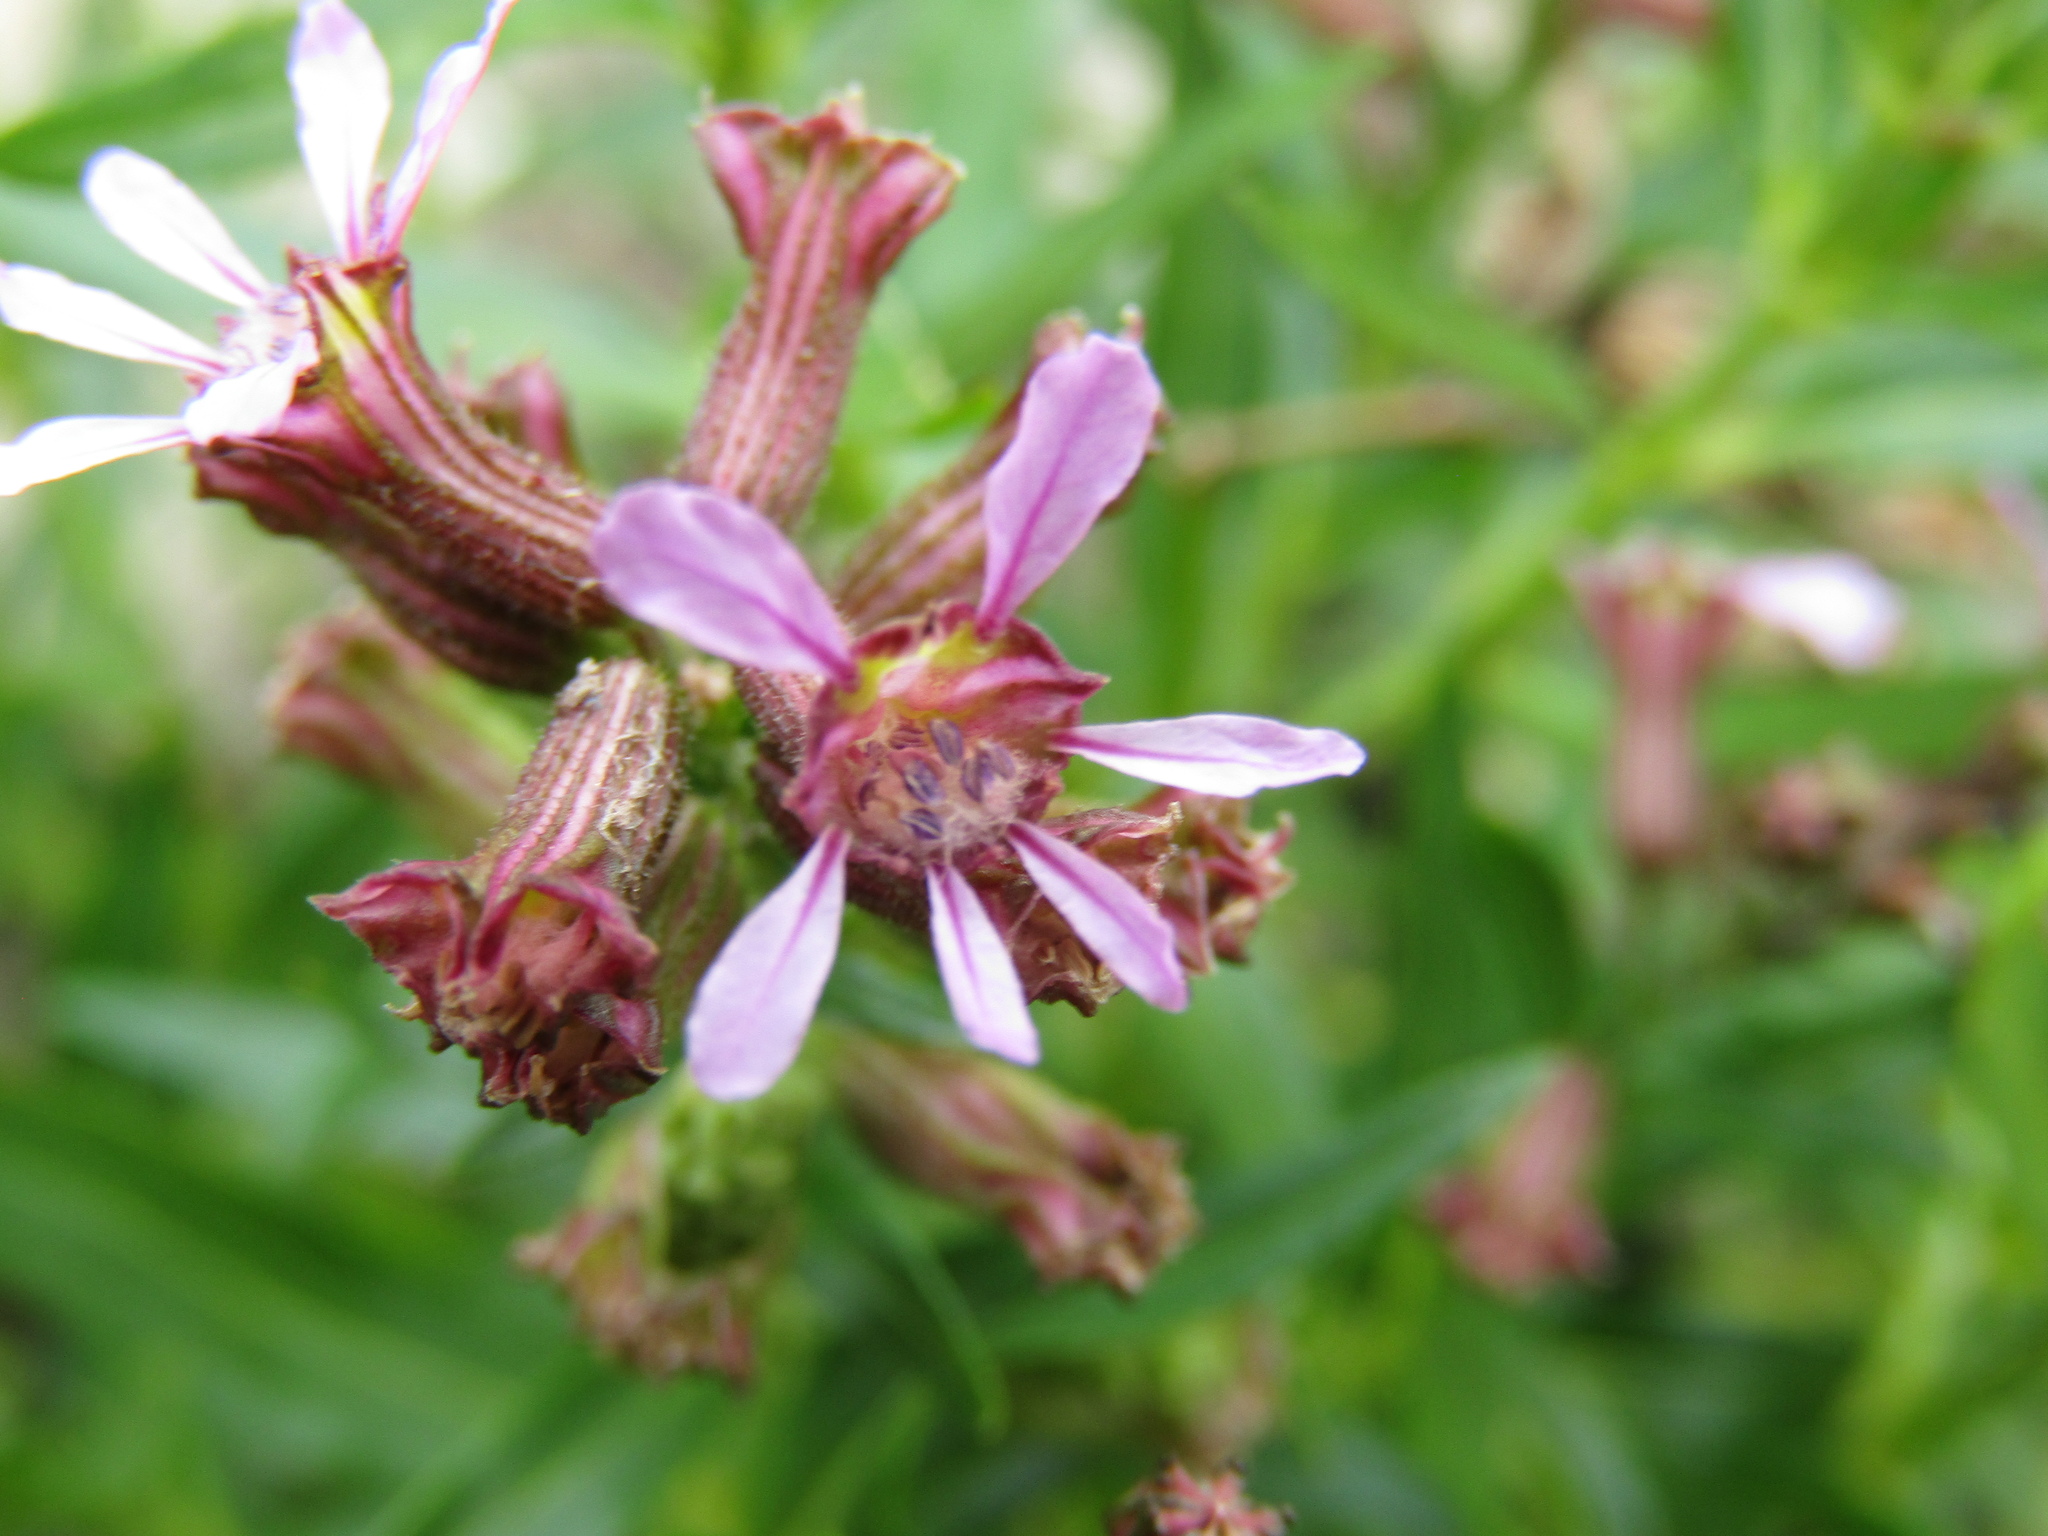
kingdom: Plantae
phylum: Tracheophyta
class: Magnoliopsida
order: Myrtales
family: Lythraceae
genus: Cuphea
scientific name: Cuphea fruticosa
